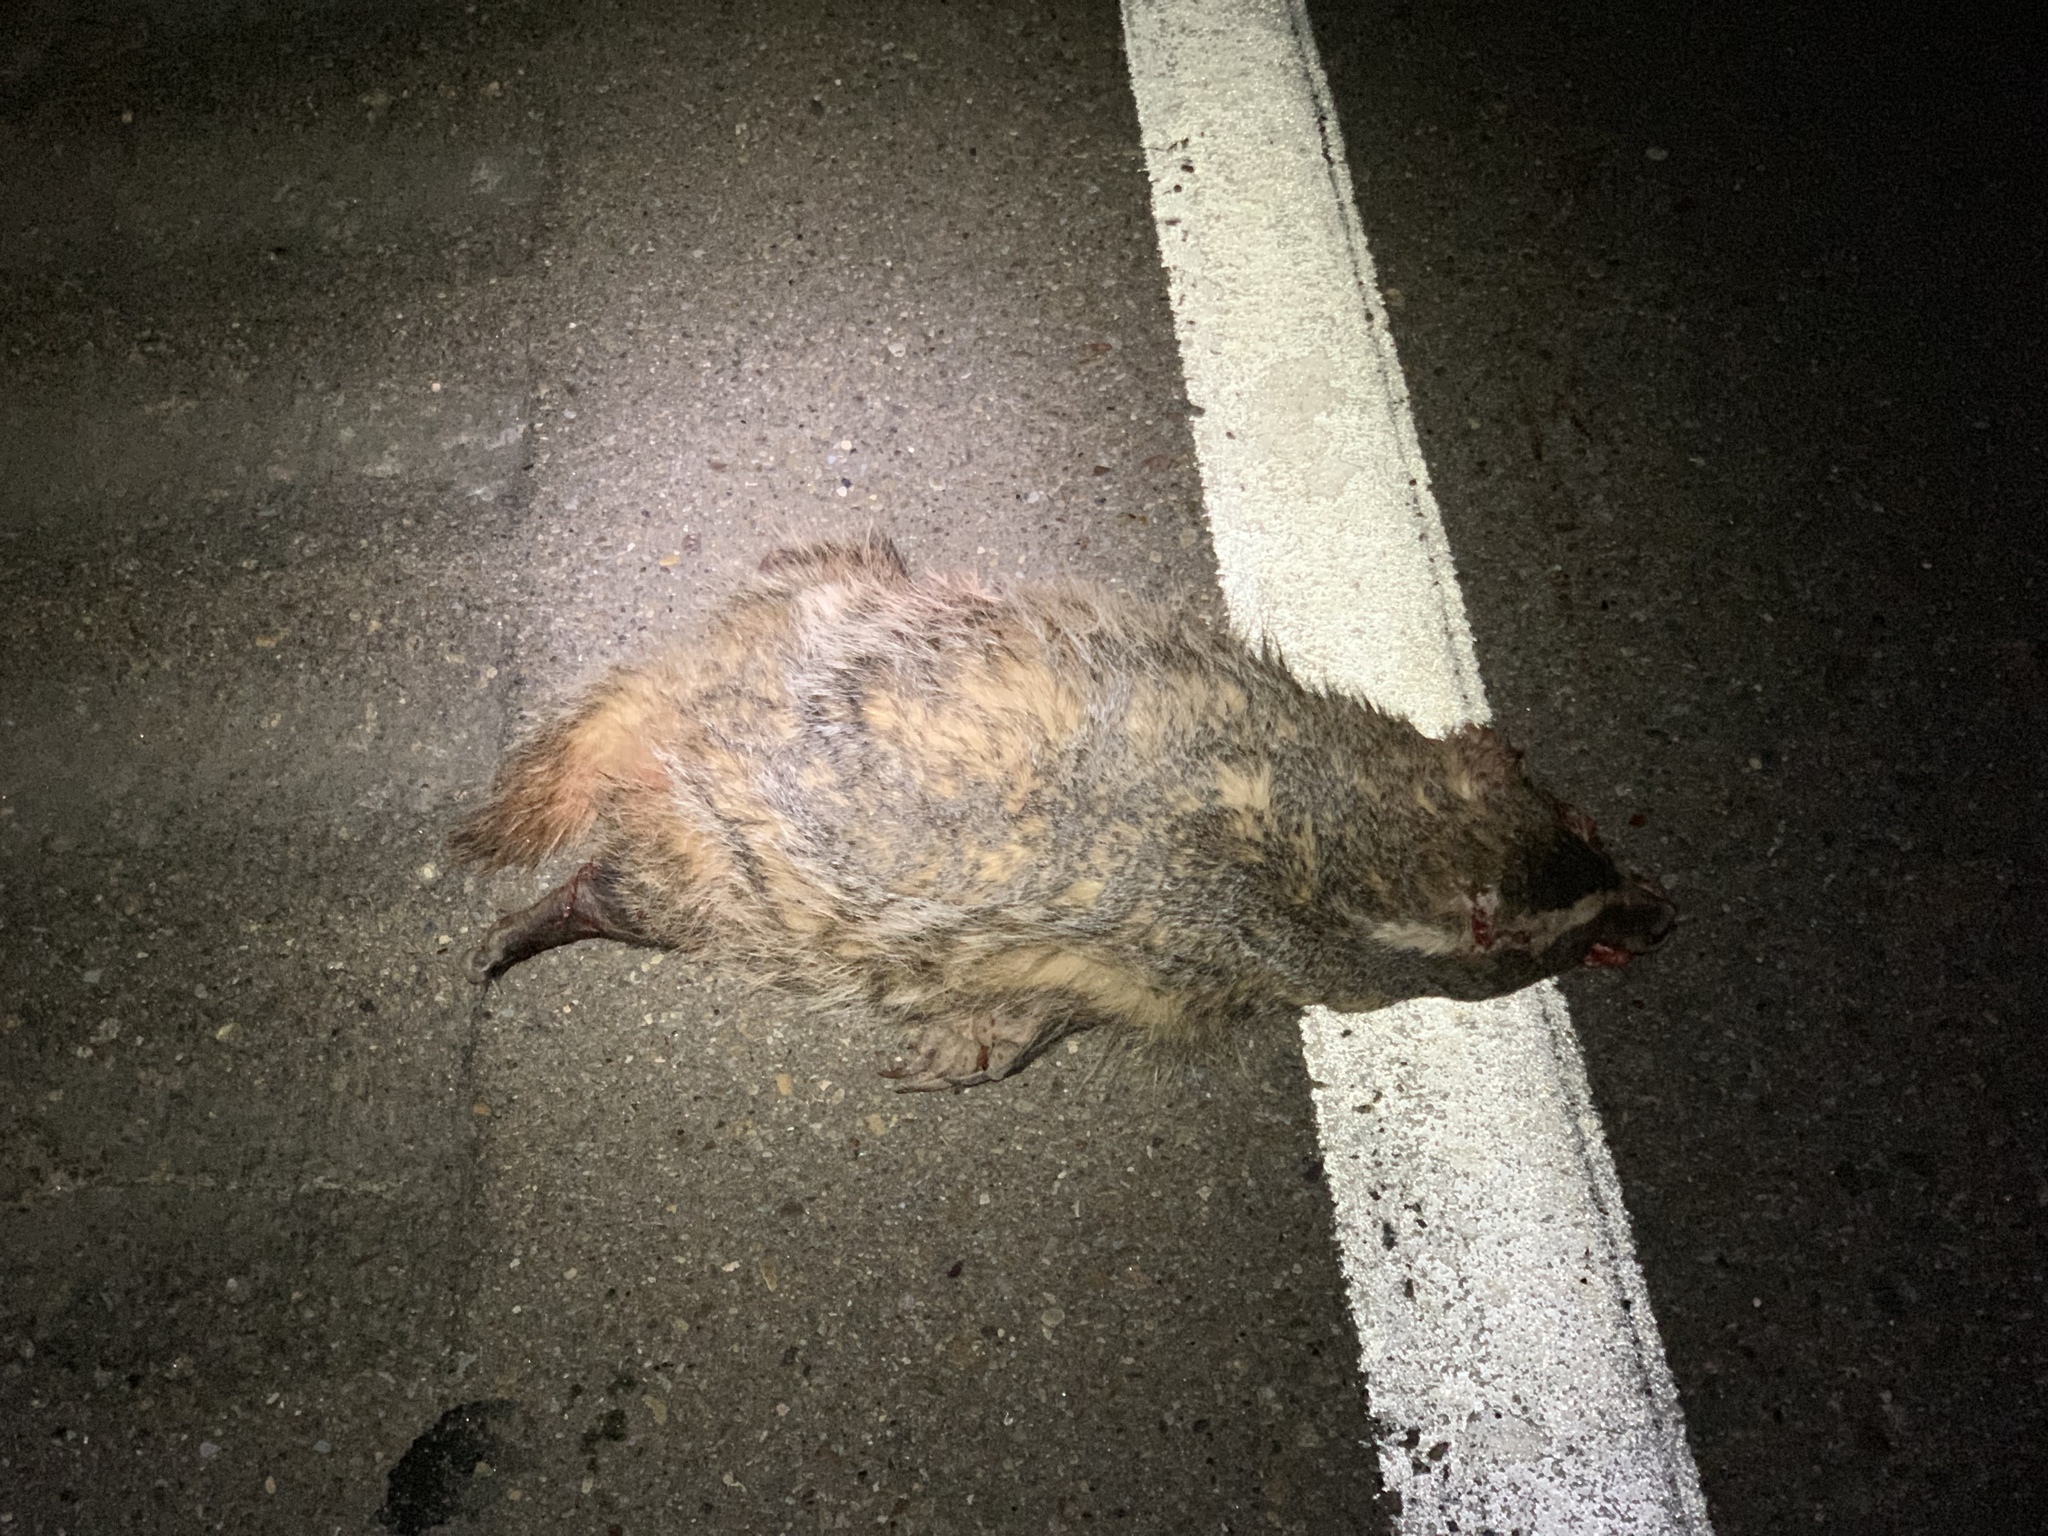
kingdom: Animalia
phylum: Chordata
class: Mammalia
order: Carnivora
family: Mustelidae
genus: Taxidea
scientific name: Taxidea taxus
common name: American badger
